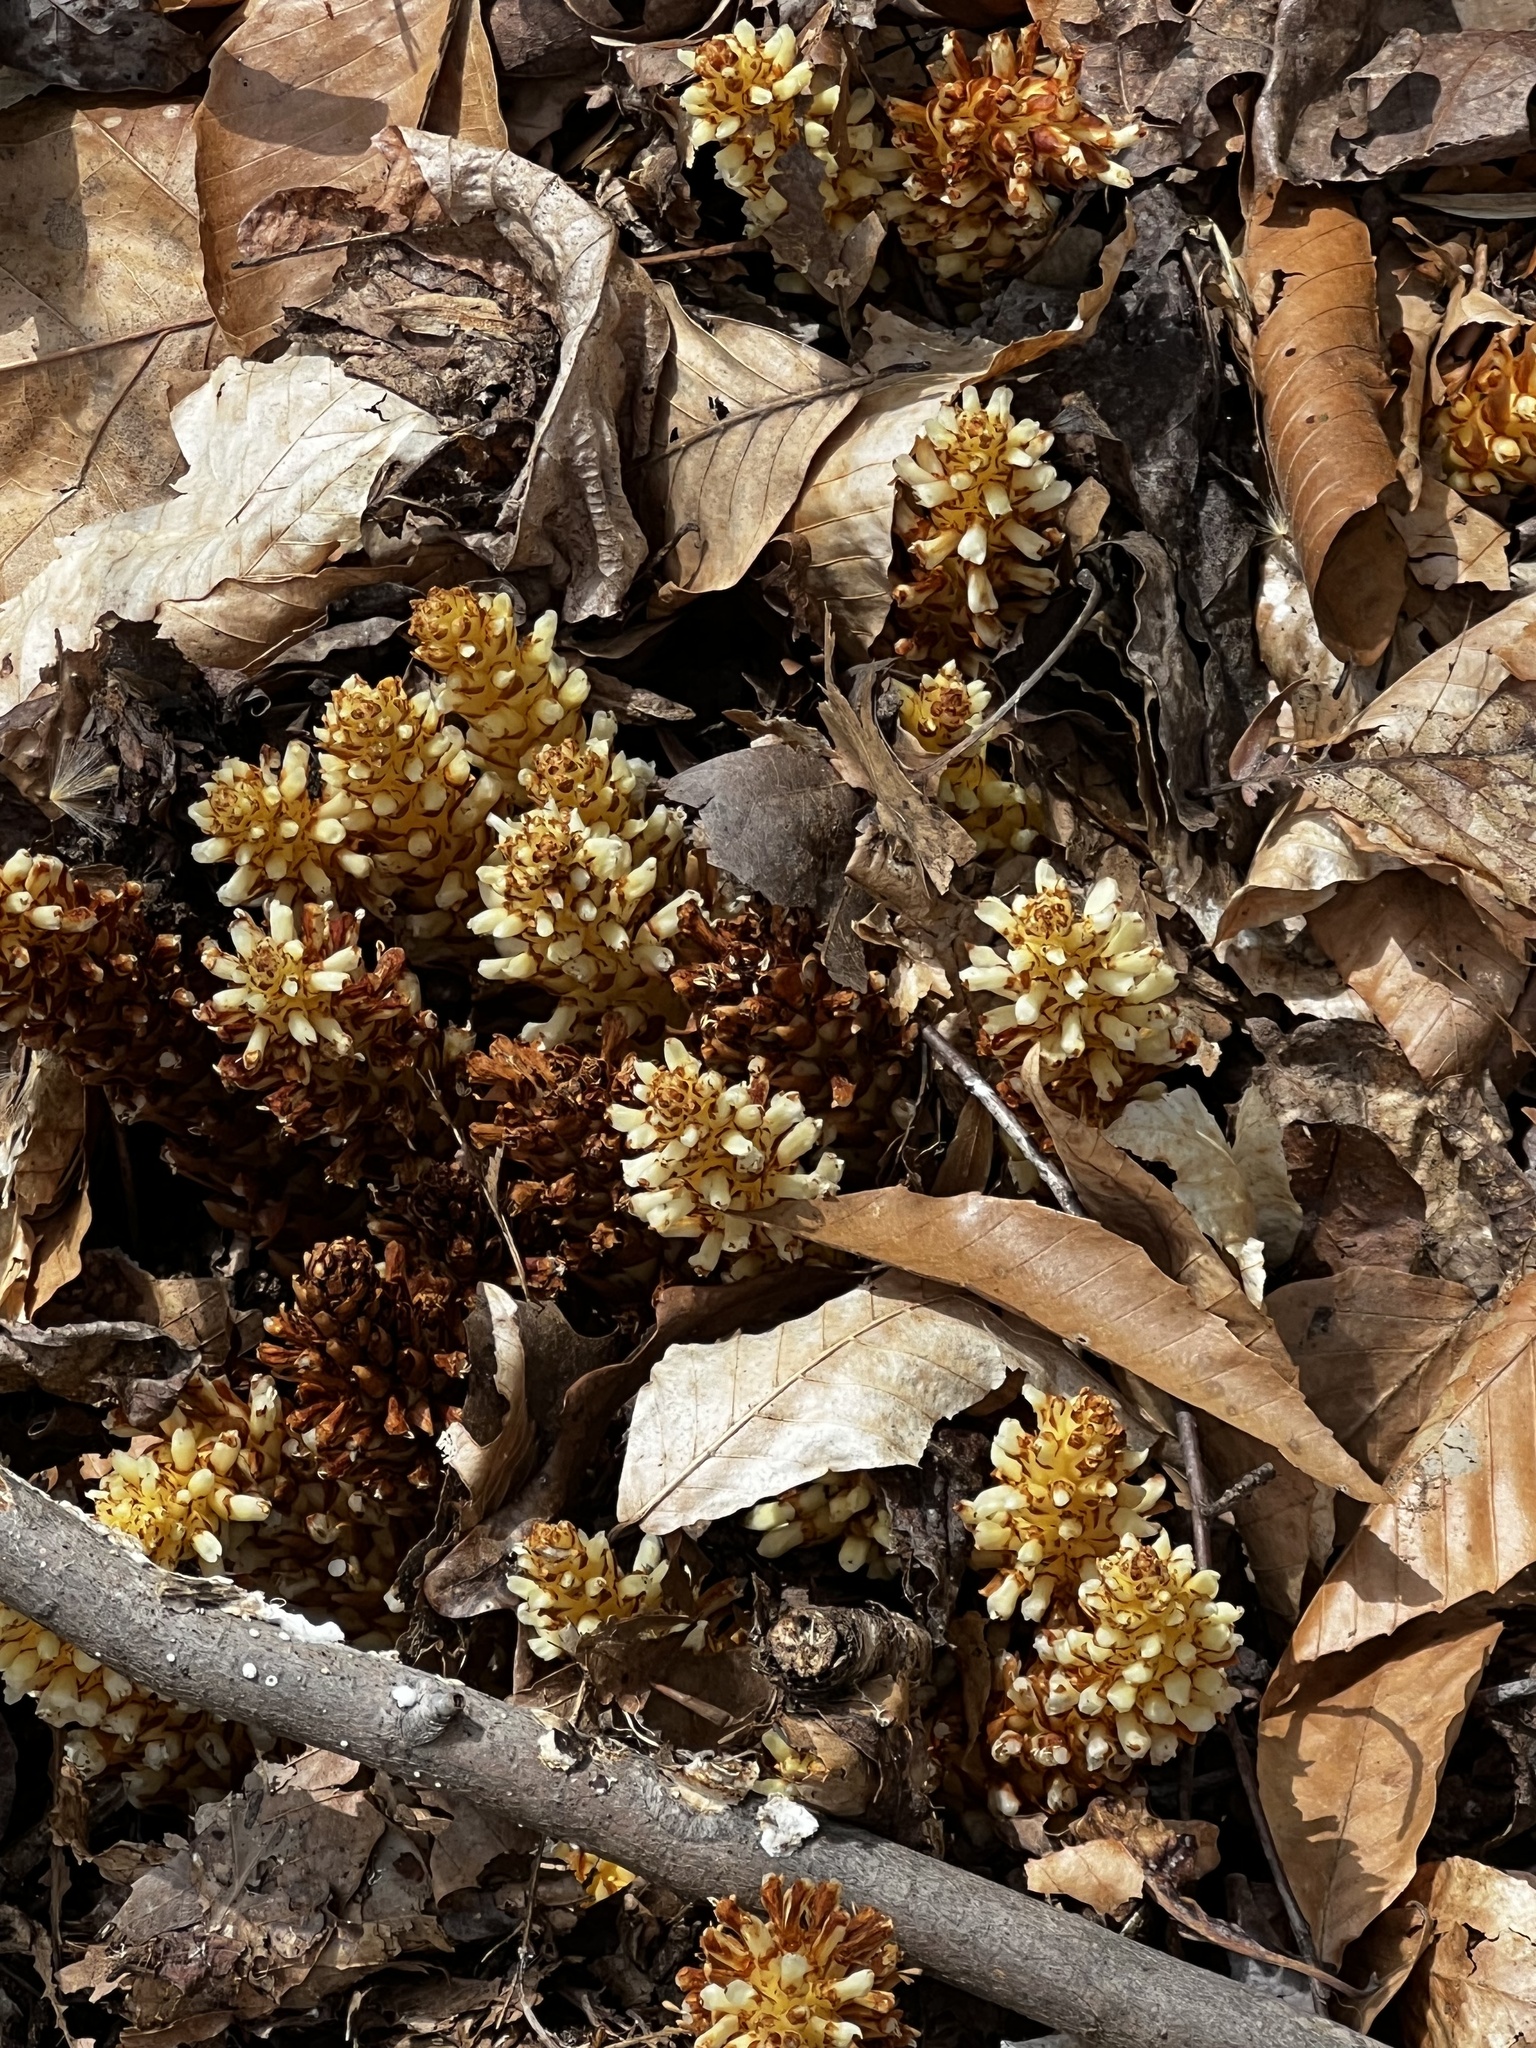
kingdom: Plantae
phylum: Tracheophyta
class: Magnoliopsida
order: Lamiales
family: Orobanchaceae
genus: Conopholis
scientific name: Conopholis americana
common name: American cancer-root
